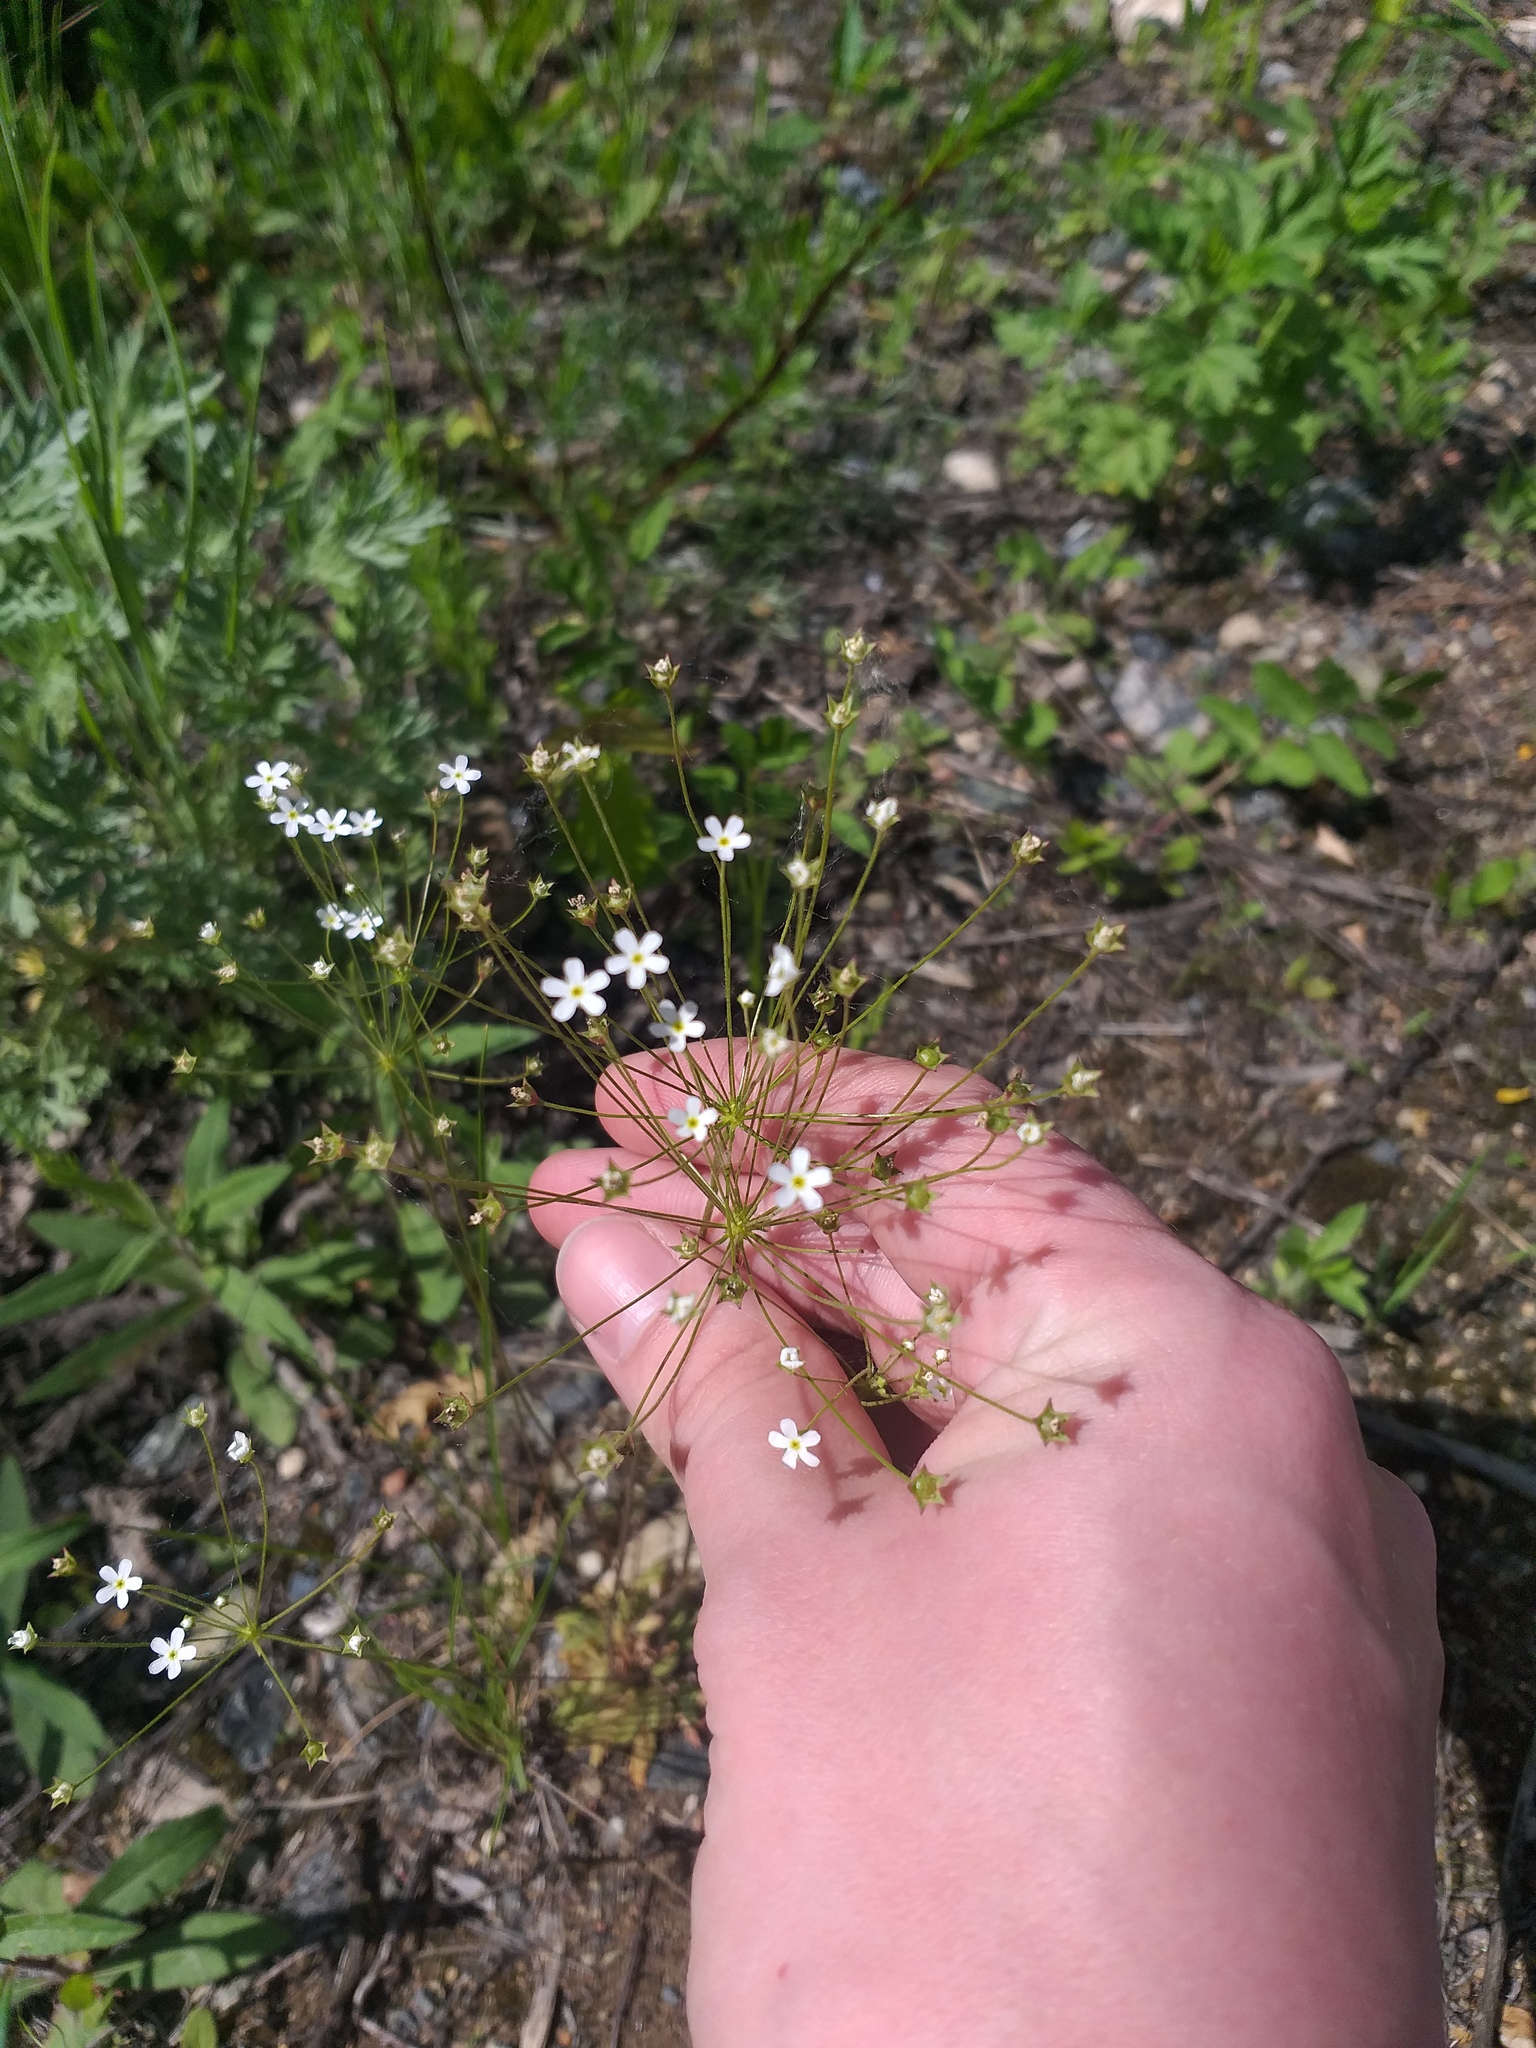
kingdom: Plantae
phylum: Tracheophyta
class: Magnoliopsida
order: Ericales
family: Primulaceae
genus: Androsace
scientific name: Androsace septentrionalis
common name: Hairy northern fairy-candelabra
